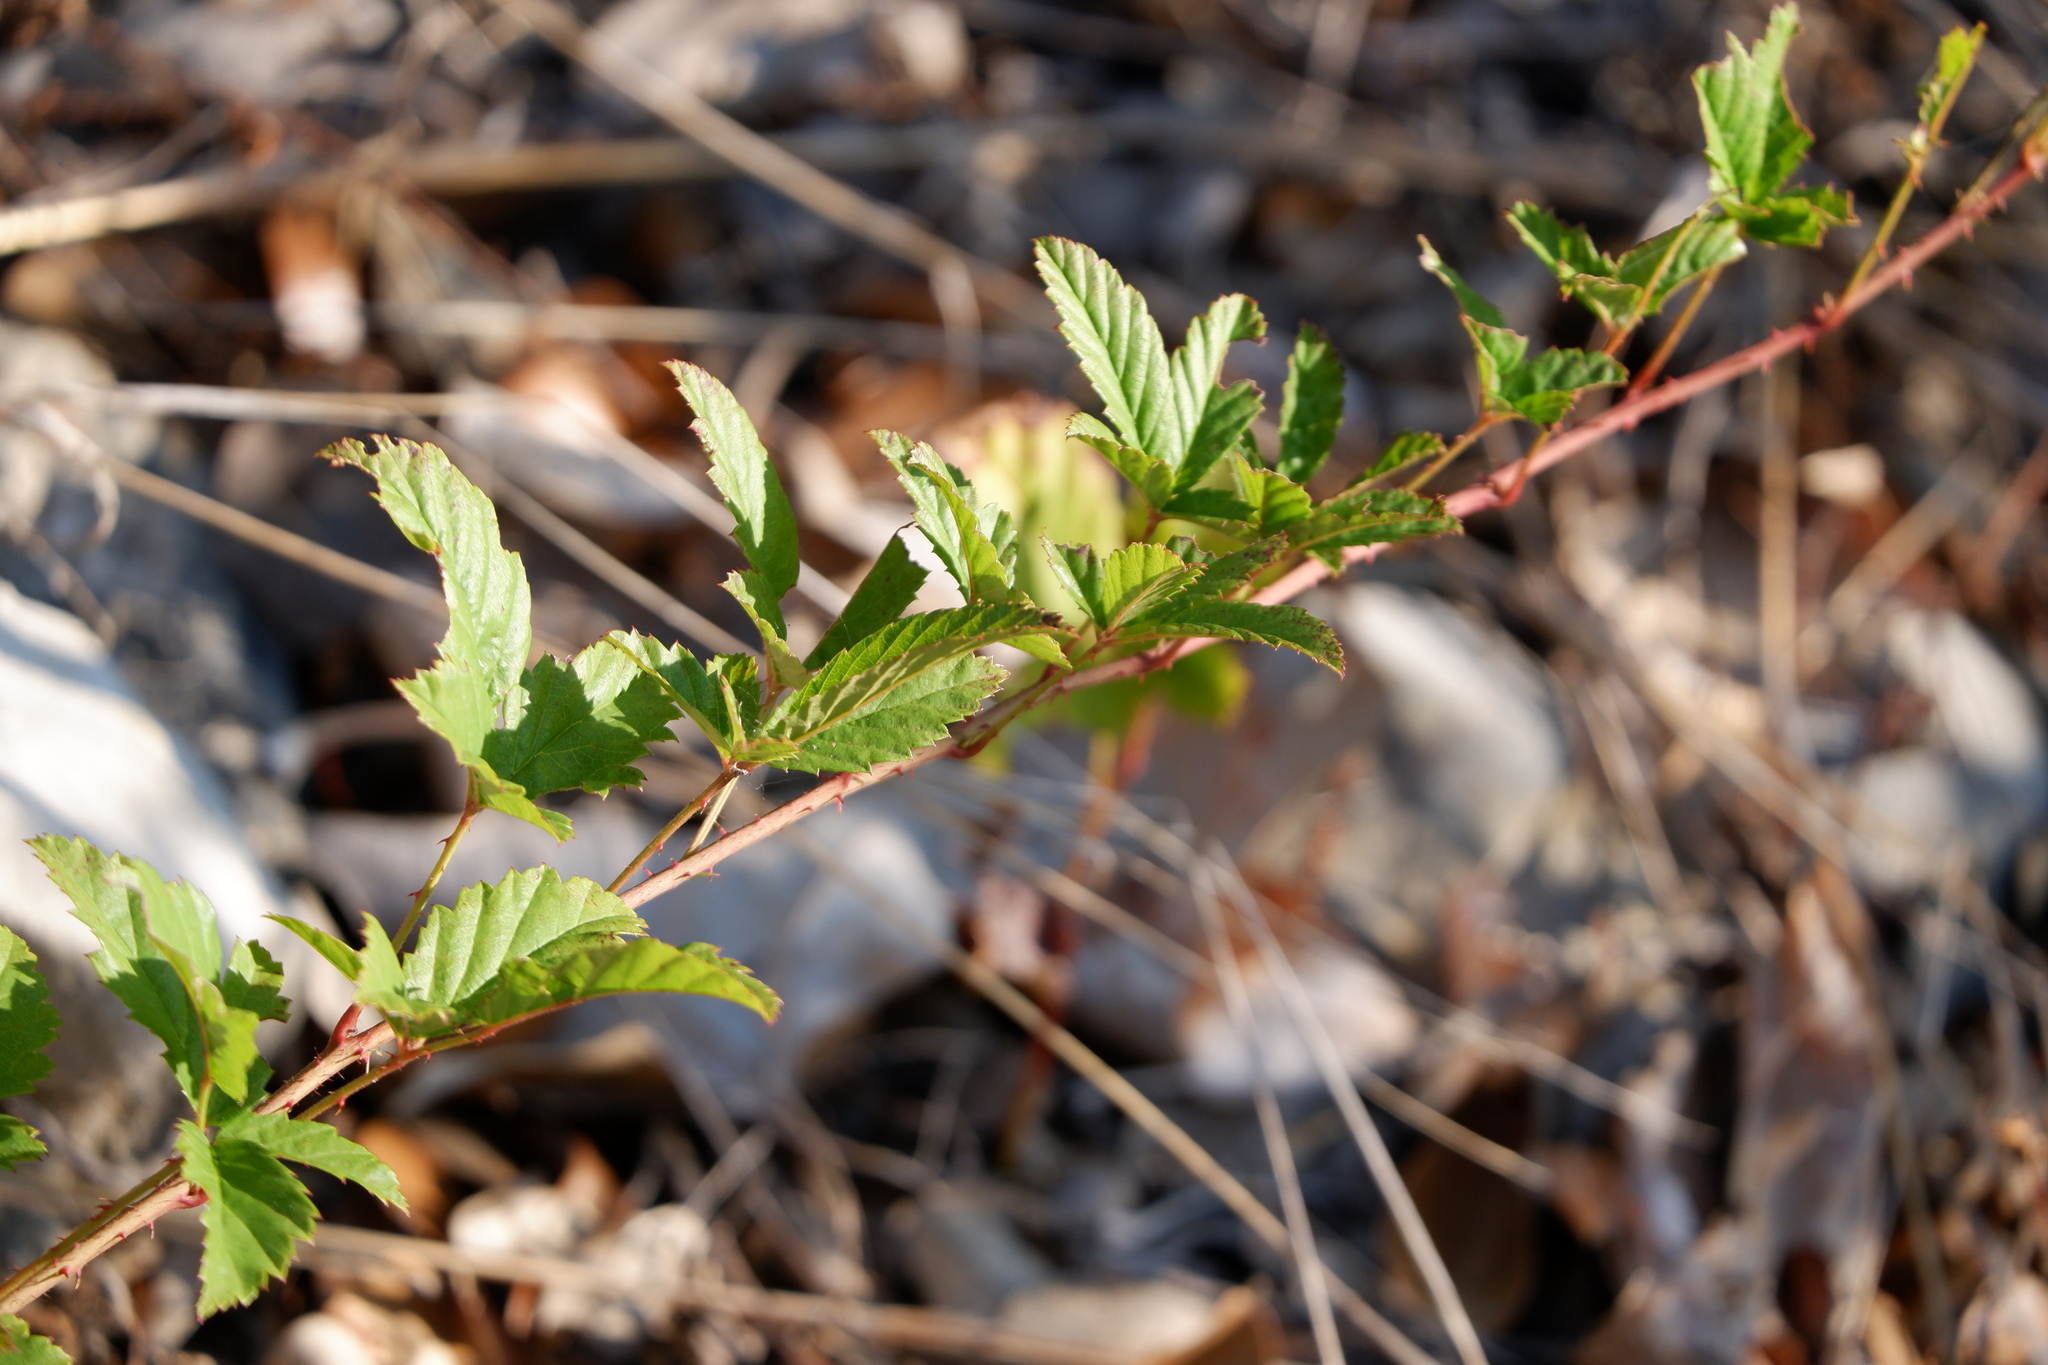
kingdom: Plantae
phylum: Tracheophyta
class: Magnoliopsida
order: Rosales
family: Rosaceae
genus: Rubus
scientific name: Rubus trivialis
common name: Southern dewberry
